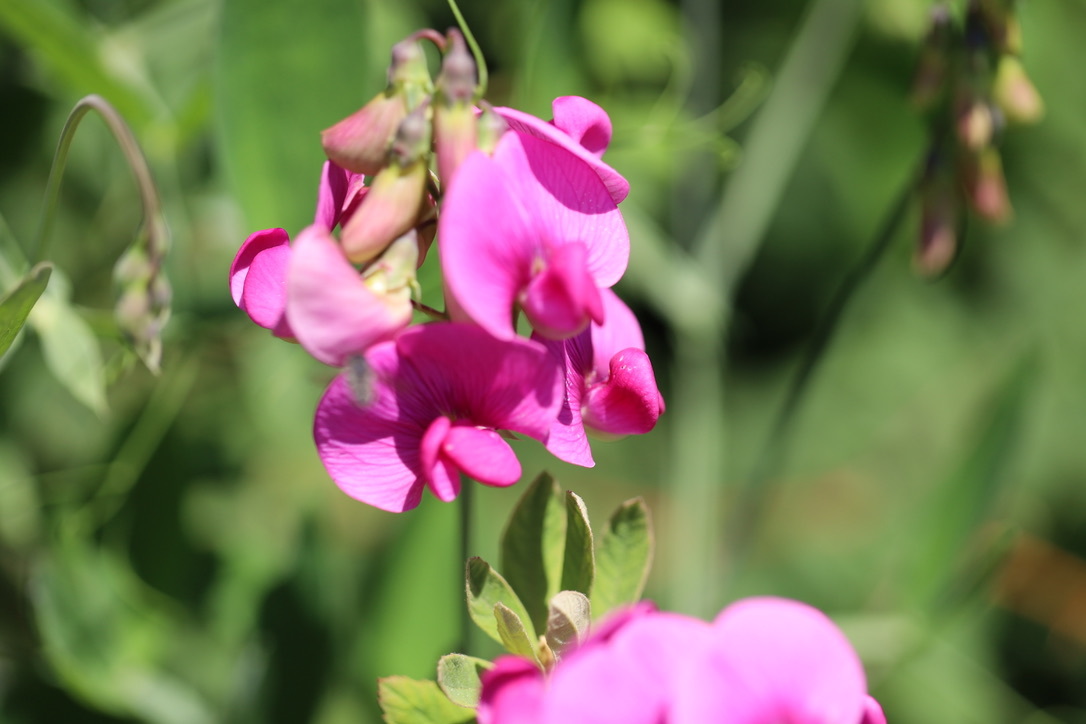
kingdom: Plantae
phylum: Tracheophyta
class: Magnoliopsida
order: Fabales
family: Fabaceae
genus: Lathyrus
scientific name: Lathyrus latifolius
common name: Perennial pea
